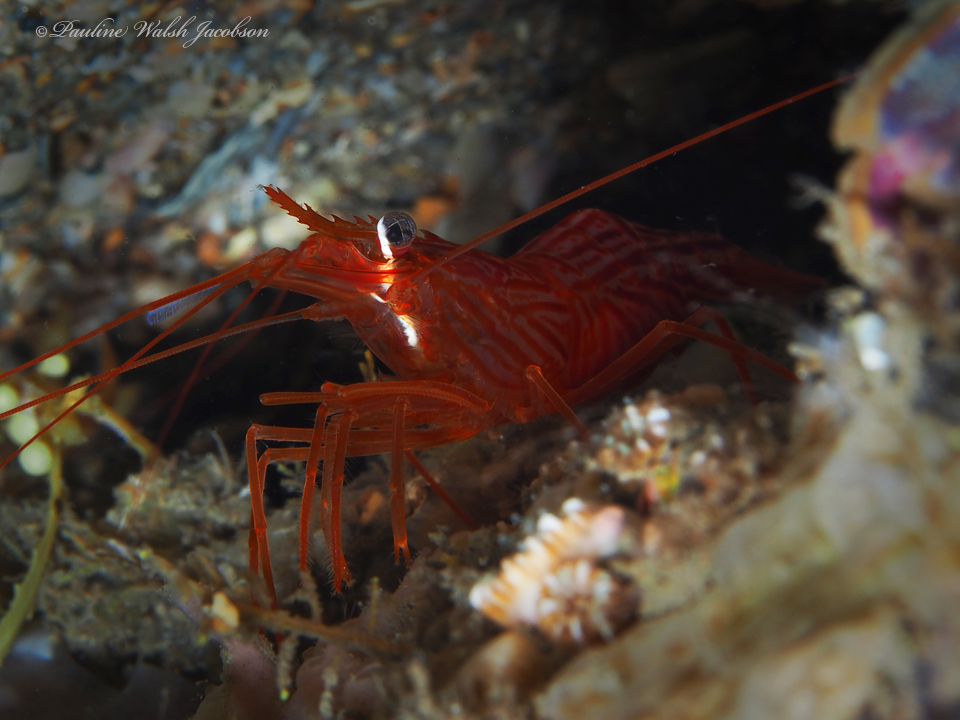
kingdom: Animalia
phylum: Arthropoda
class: Malacostraca
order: Decapoda
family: Lysmatidae
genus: Lysmata
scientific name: Lysmata rafa
